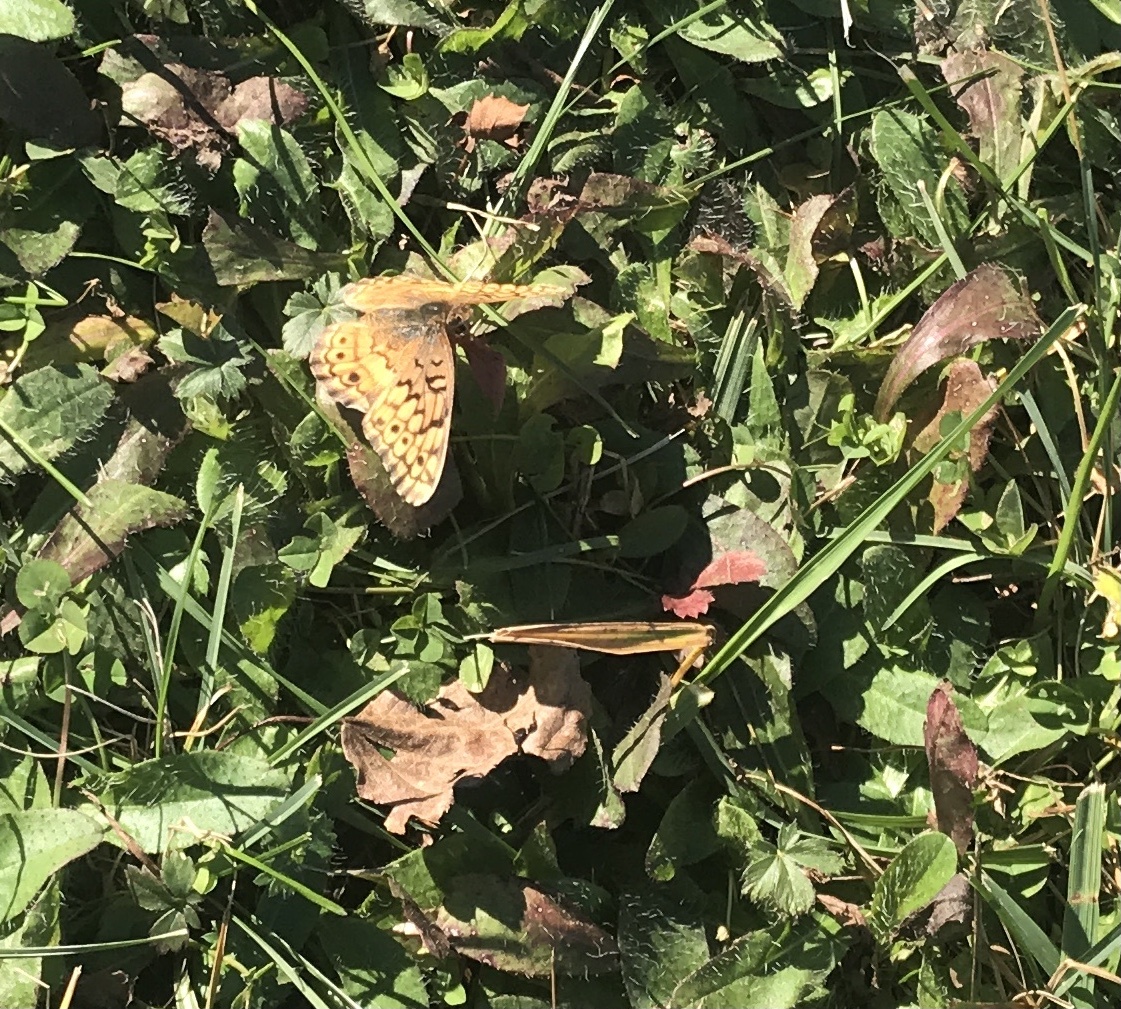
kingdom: Animalia
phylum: Arthropoda
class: Insecta
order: Lepidoptera
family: Nymphalidae
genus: Euptoieta
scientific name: Euptoieta claudia
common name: Variegated fritillary
